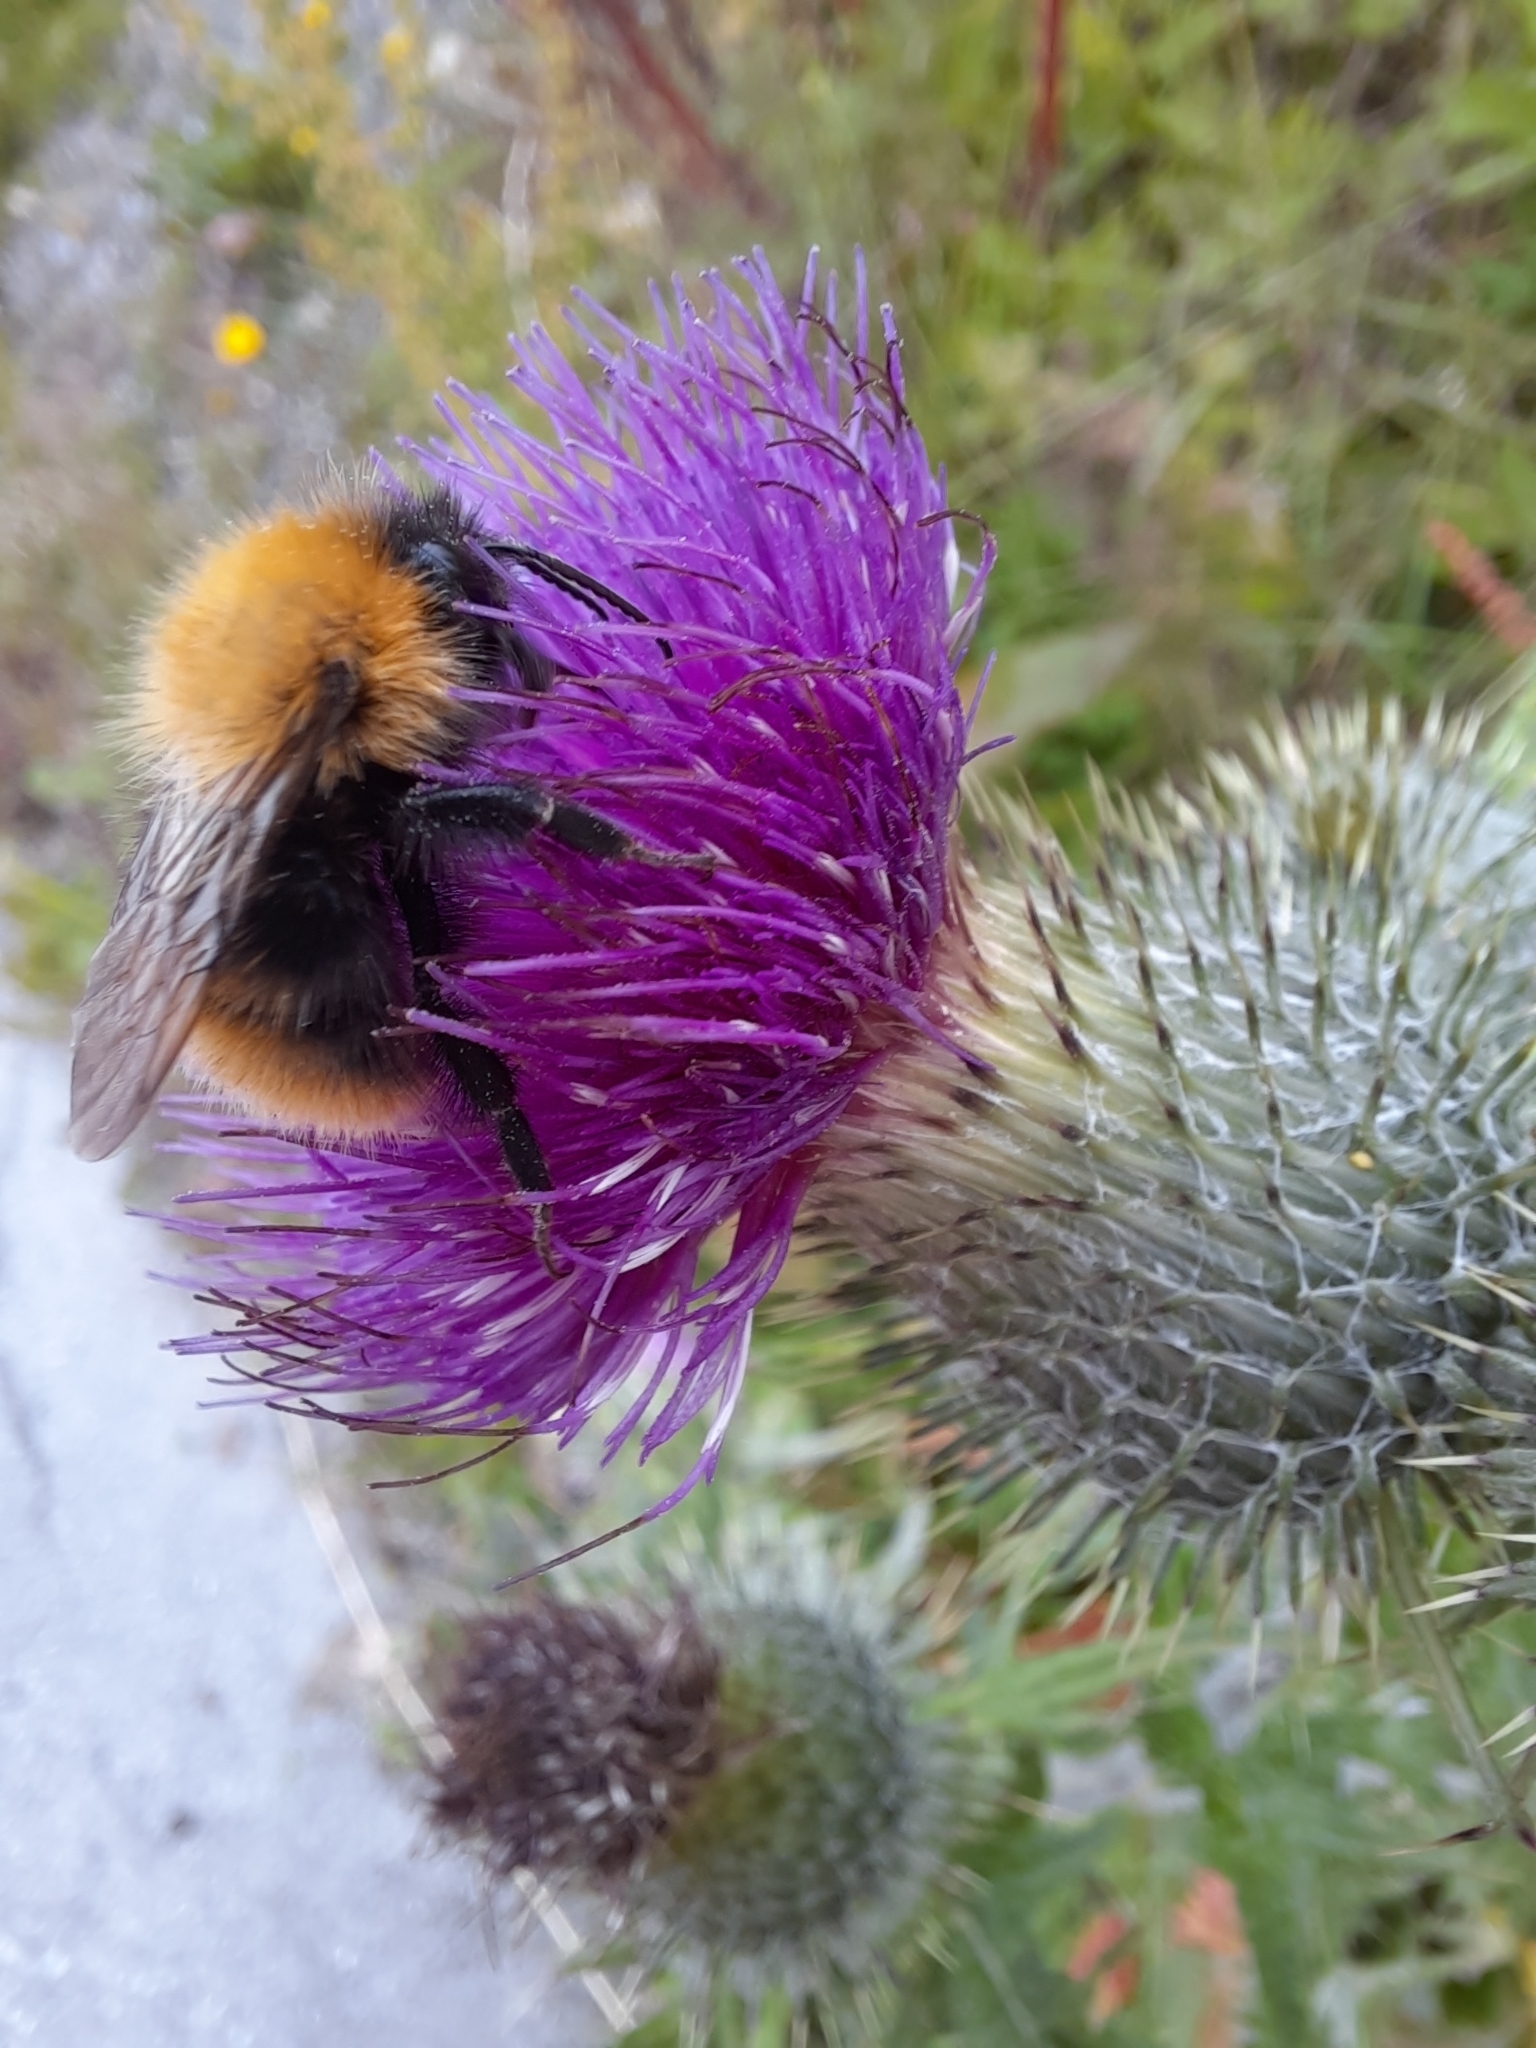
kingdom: Animalia
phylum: Arthropoda
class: Insecta
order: Hymenoptera
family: Apidae
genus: Bombus
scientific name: Bombus pascuorum
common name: Common carder bee
